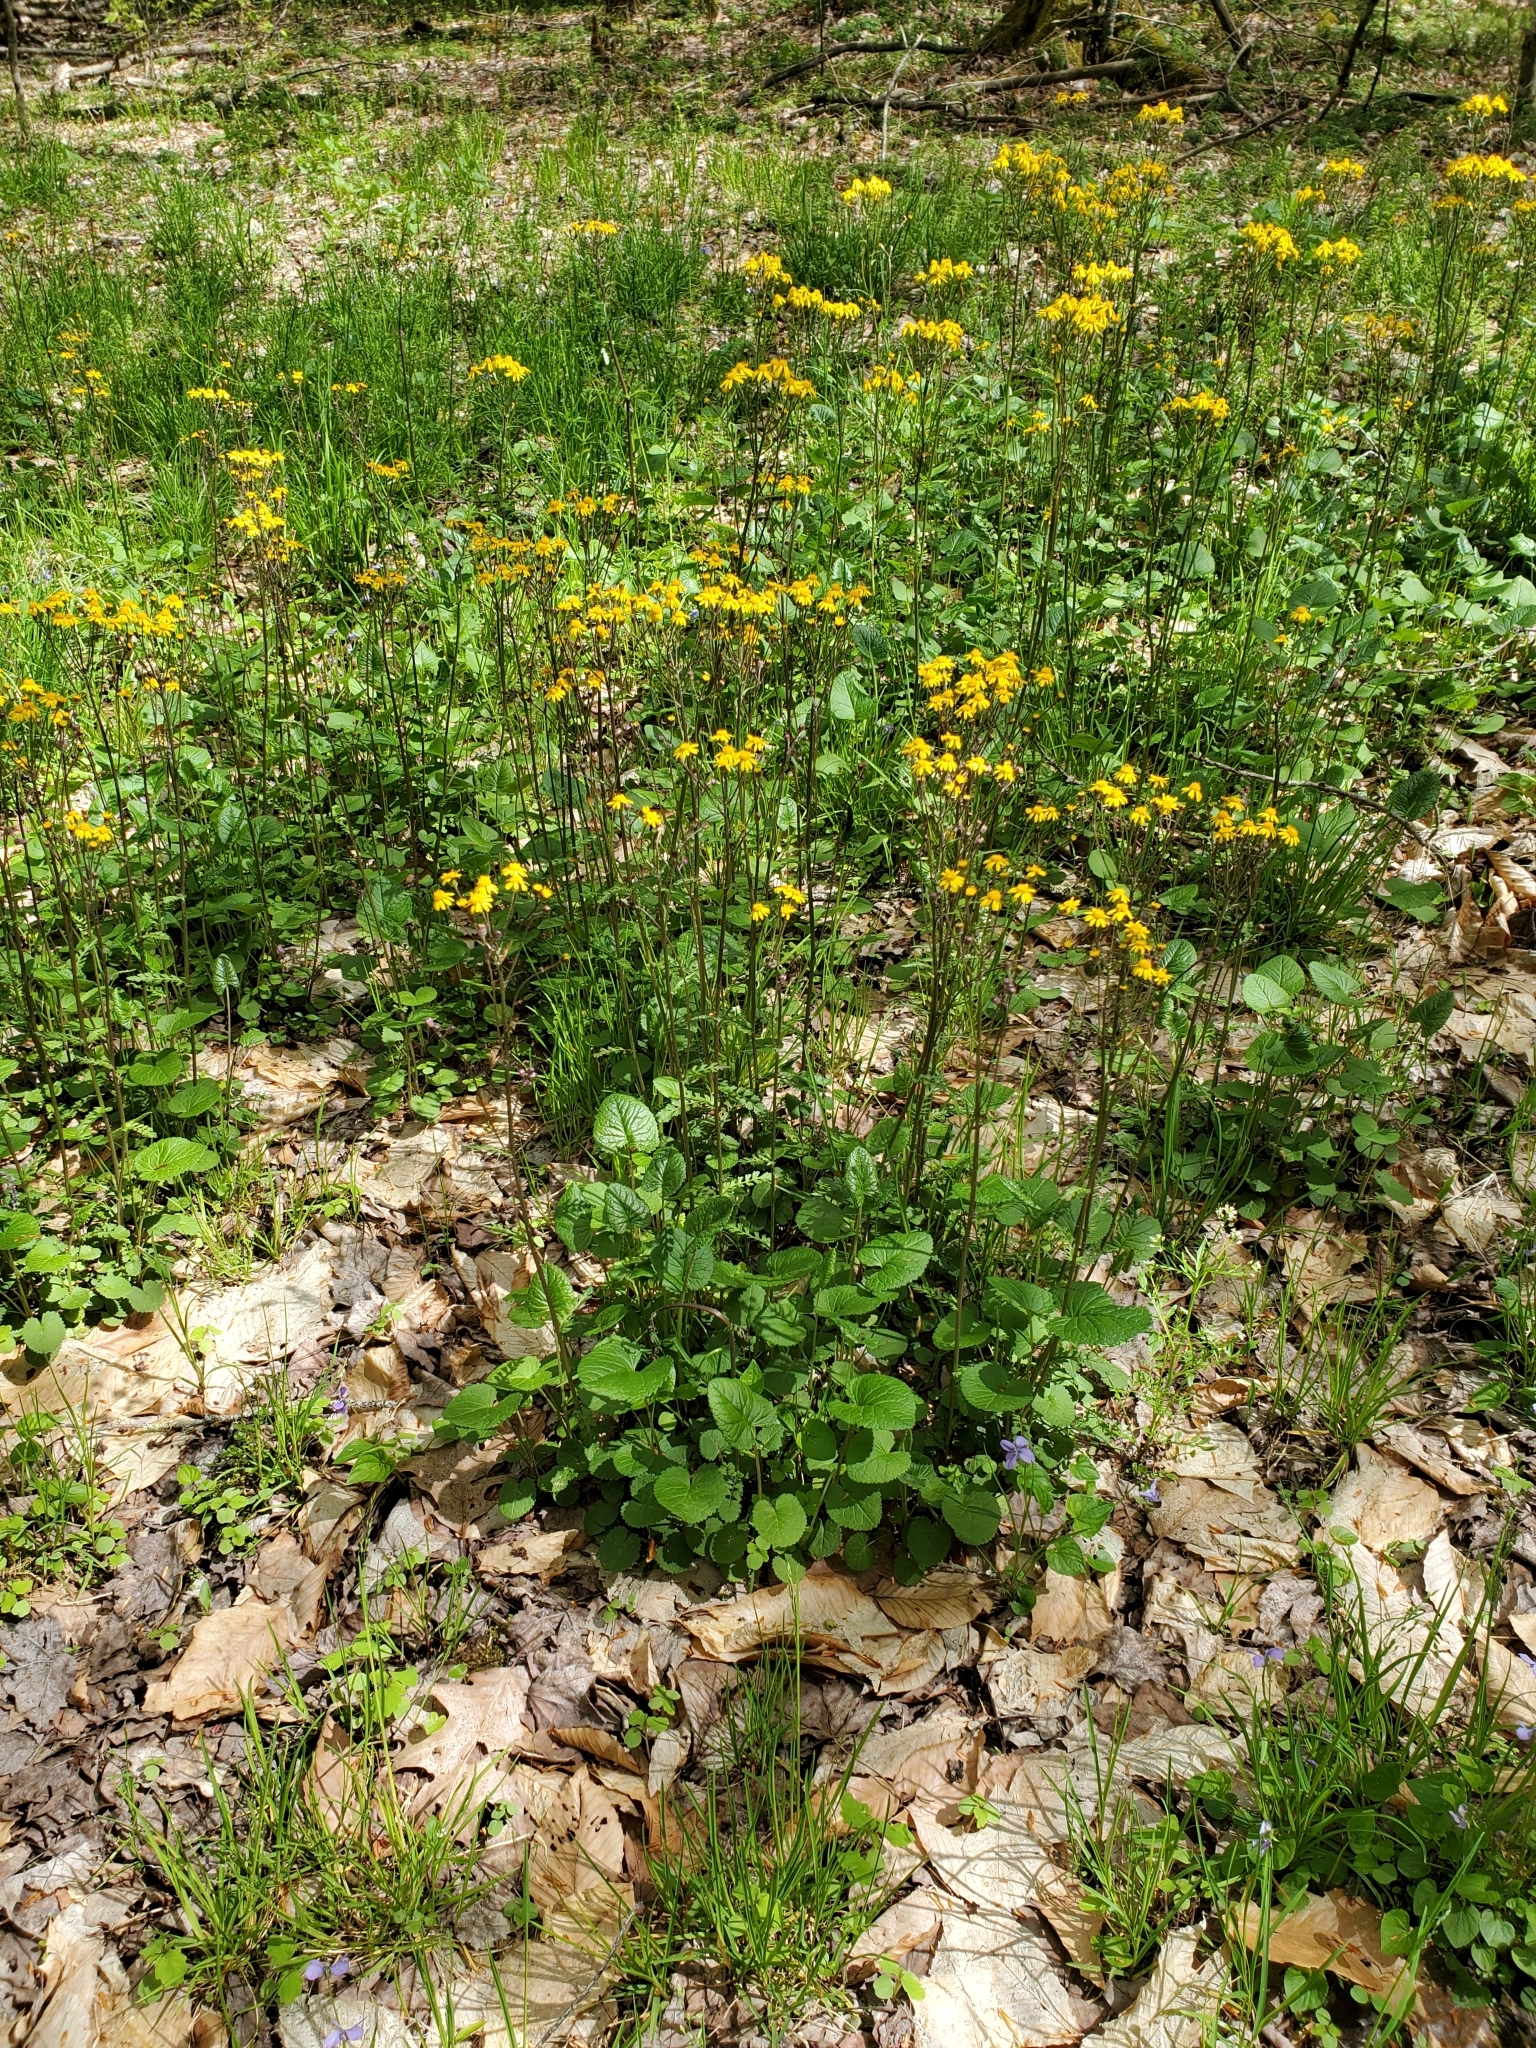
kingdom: Plantae
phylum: Tracheophyta
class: Magnoliopsida
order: Asterales
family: Asteraceae
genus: Packera
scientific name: Packera aurea
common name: Golden groundsel
